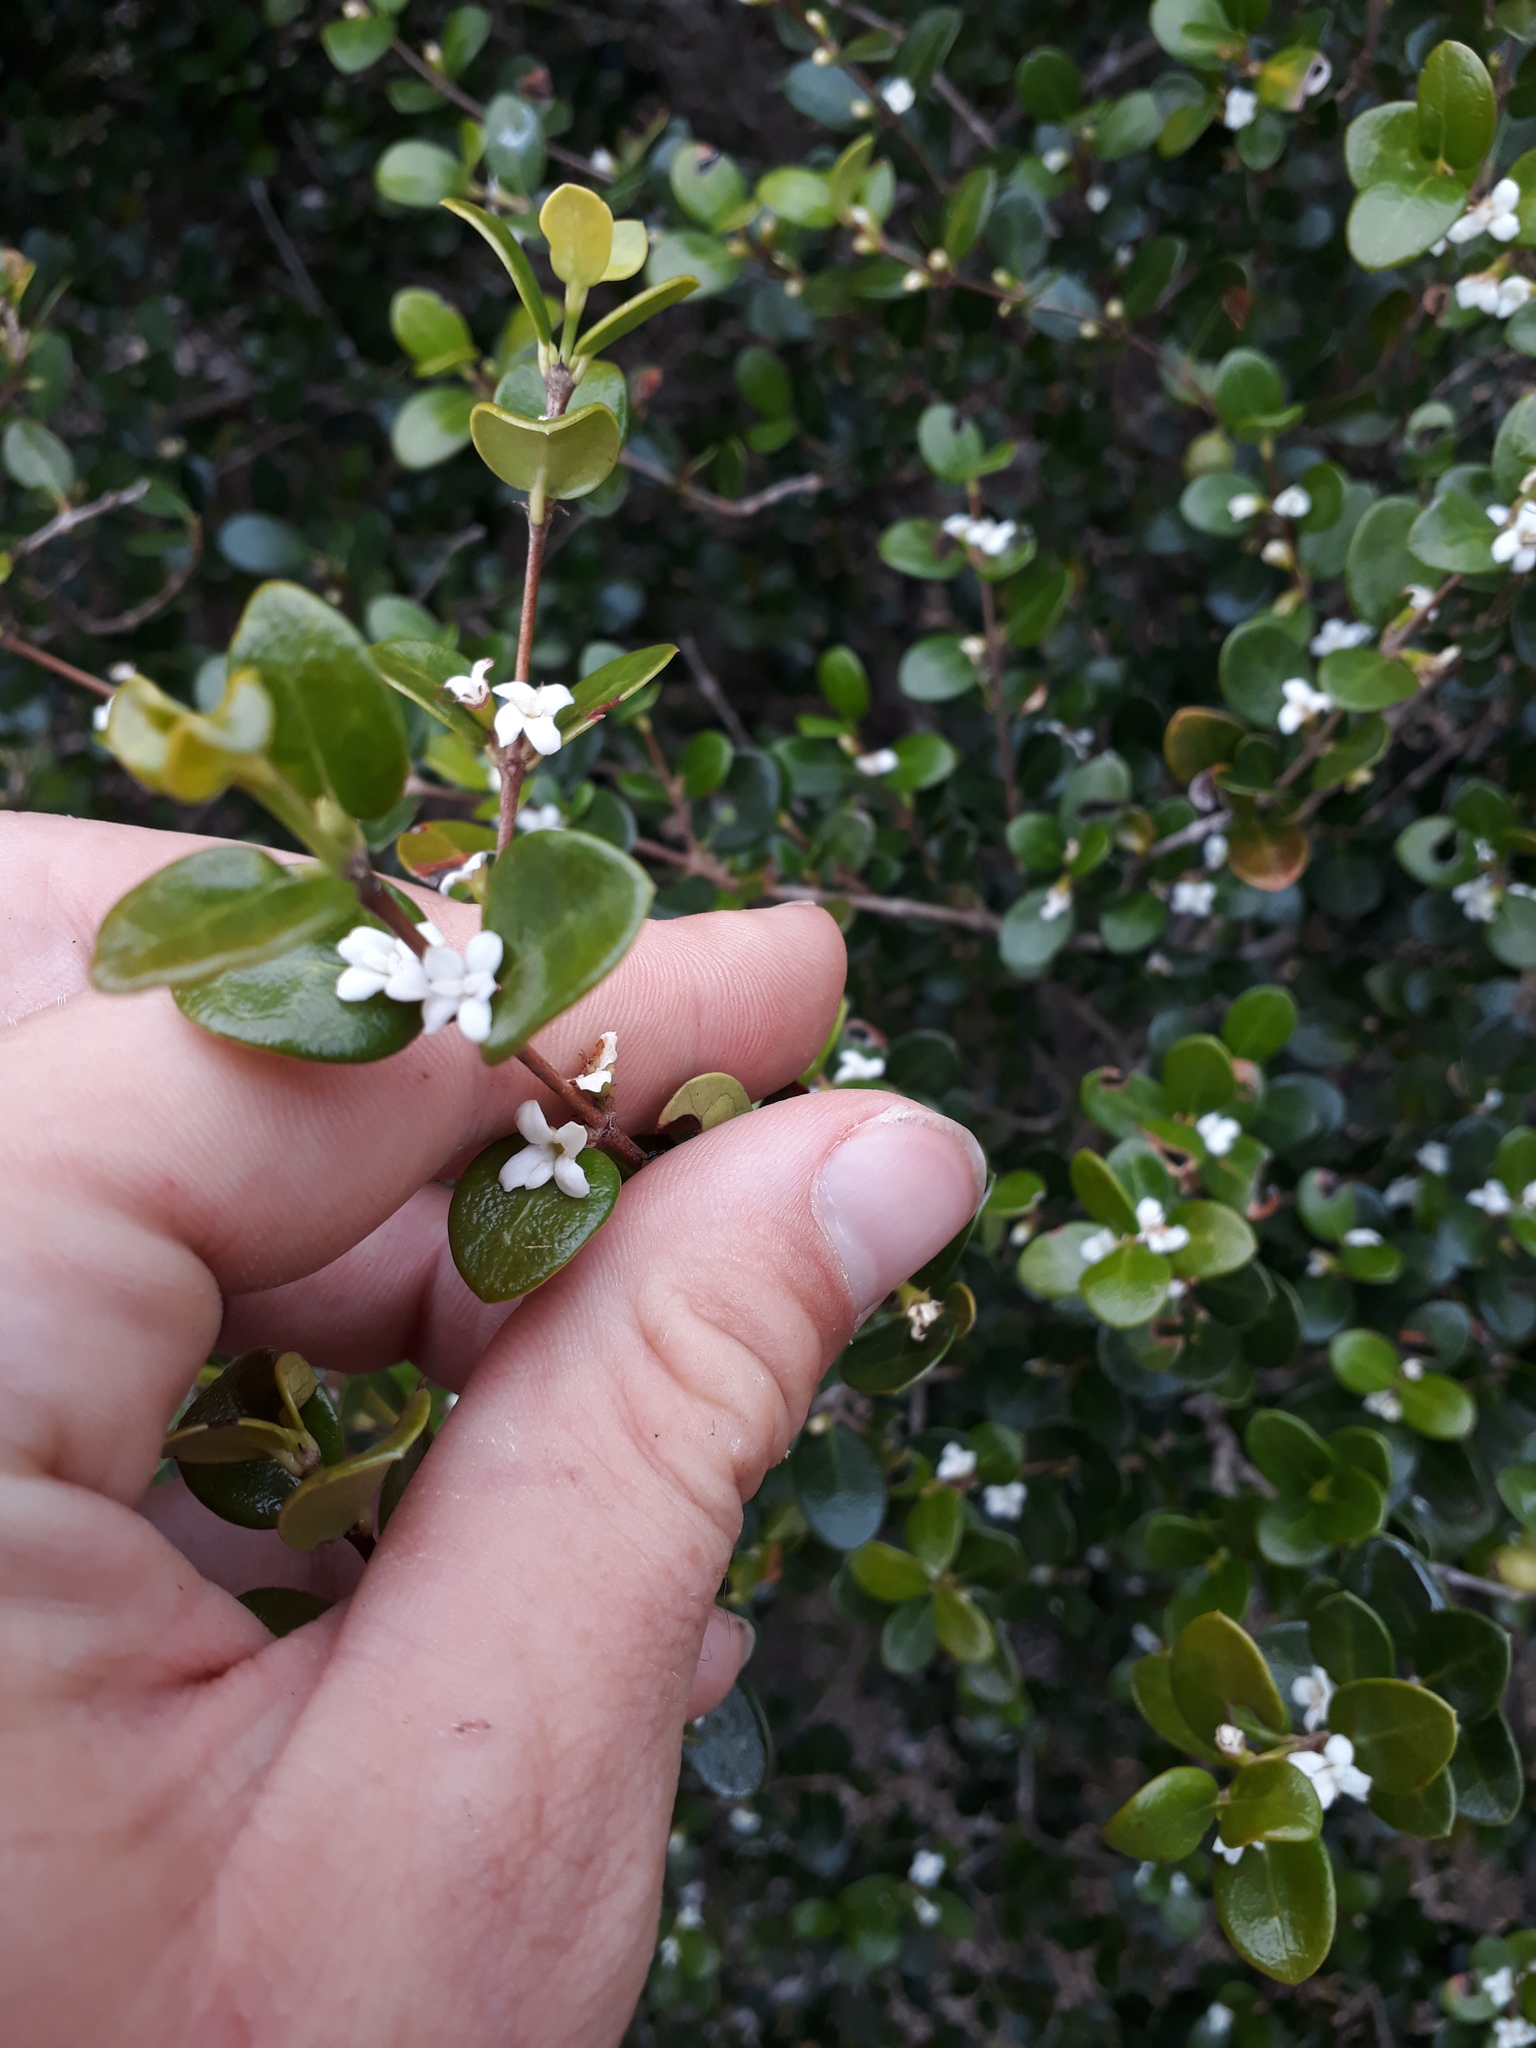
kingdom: Plantae
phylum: Tracheophyta
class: Magnoliopsida
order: Gentianales
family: Rubiaceae
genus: Fernelia
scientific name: Fernelia buxifolia
